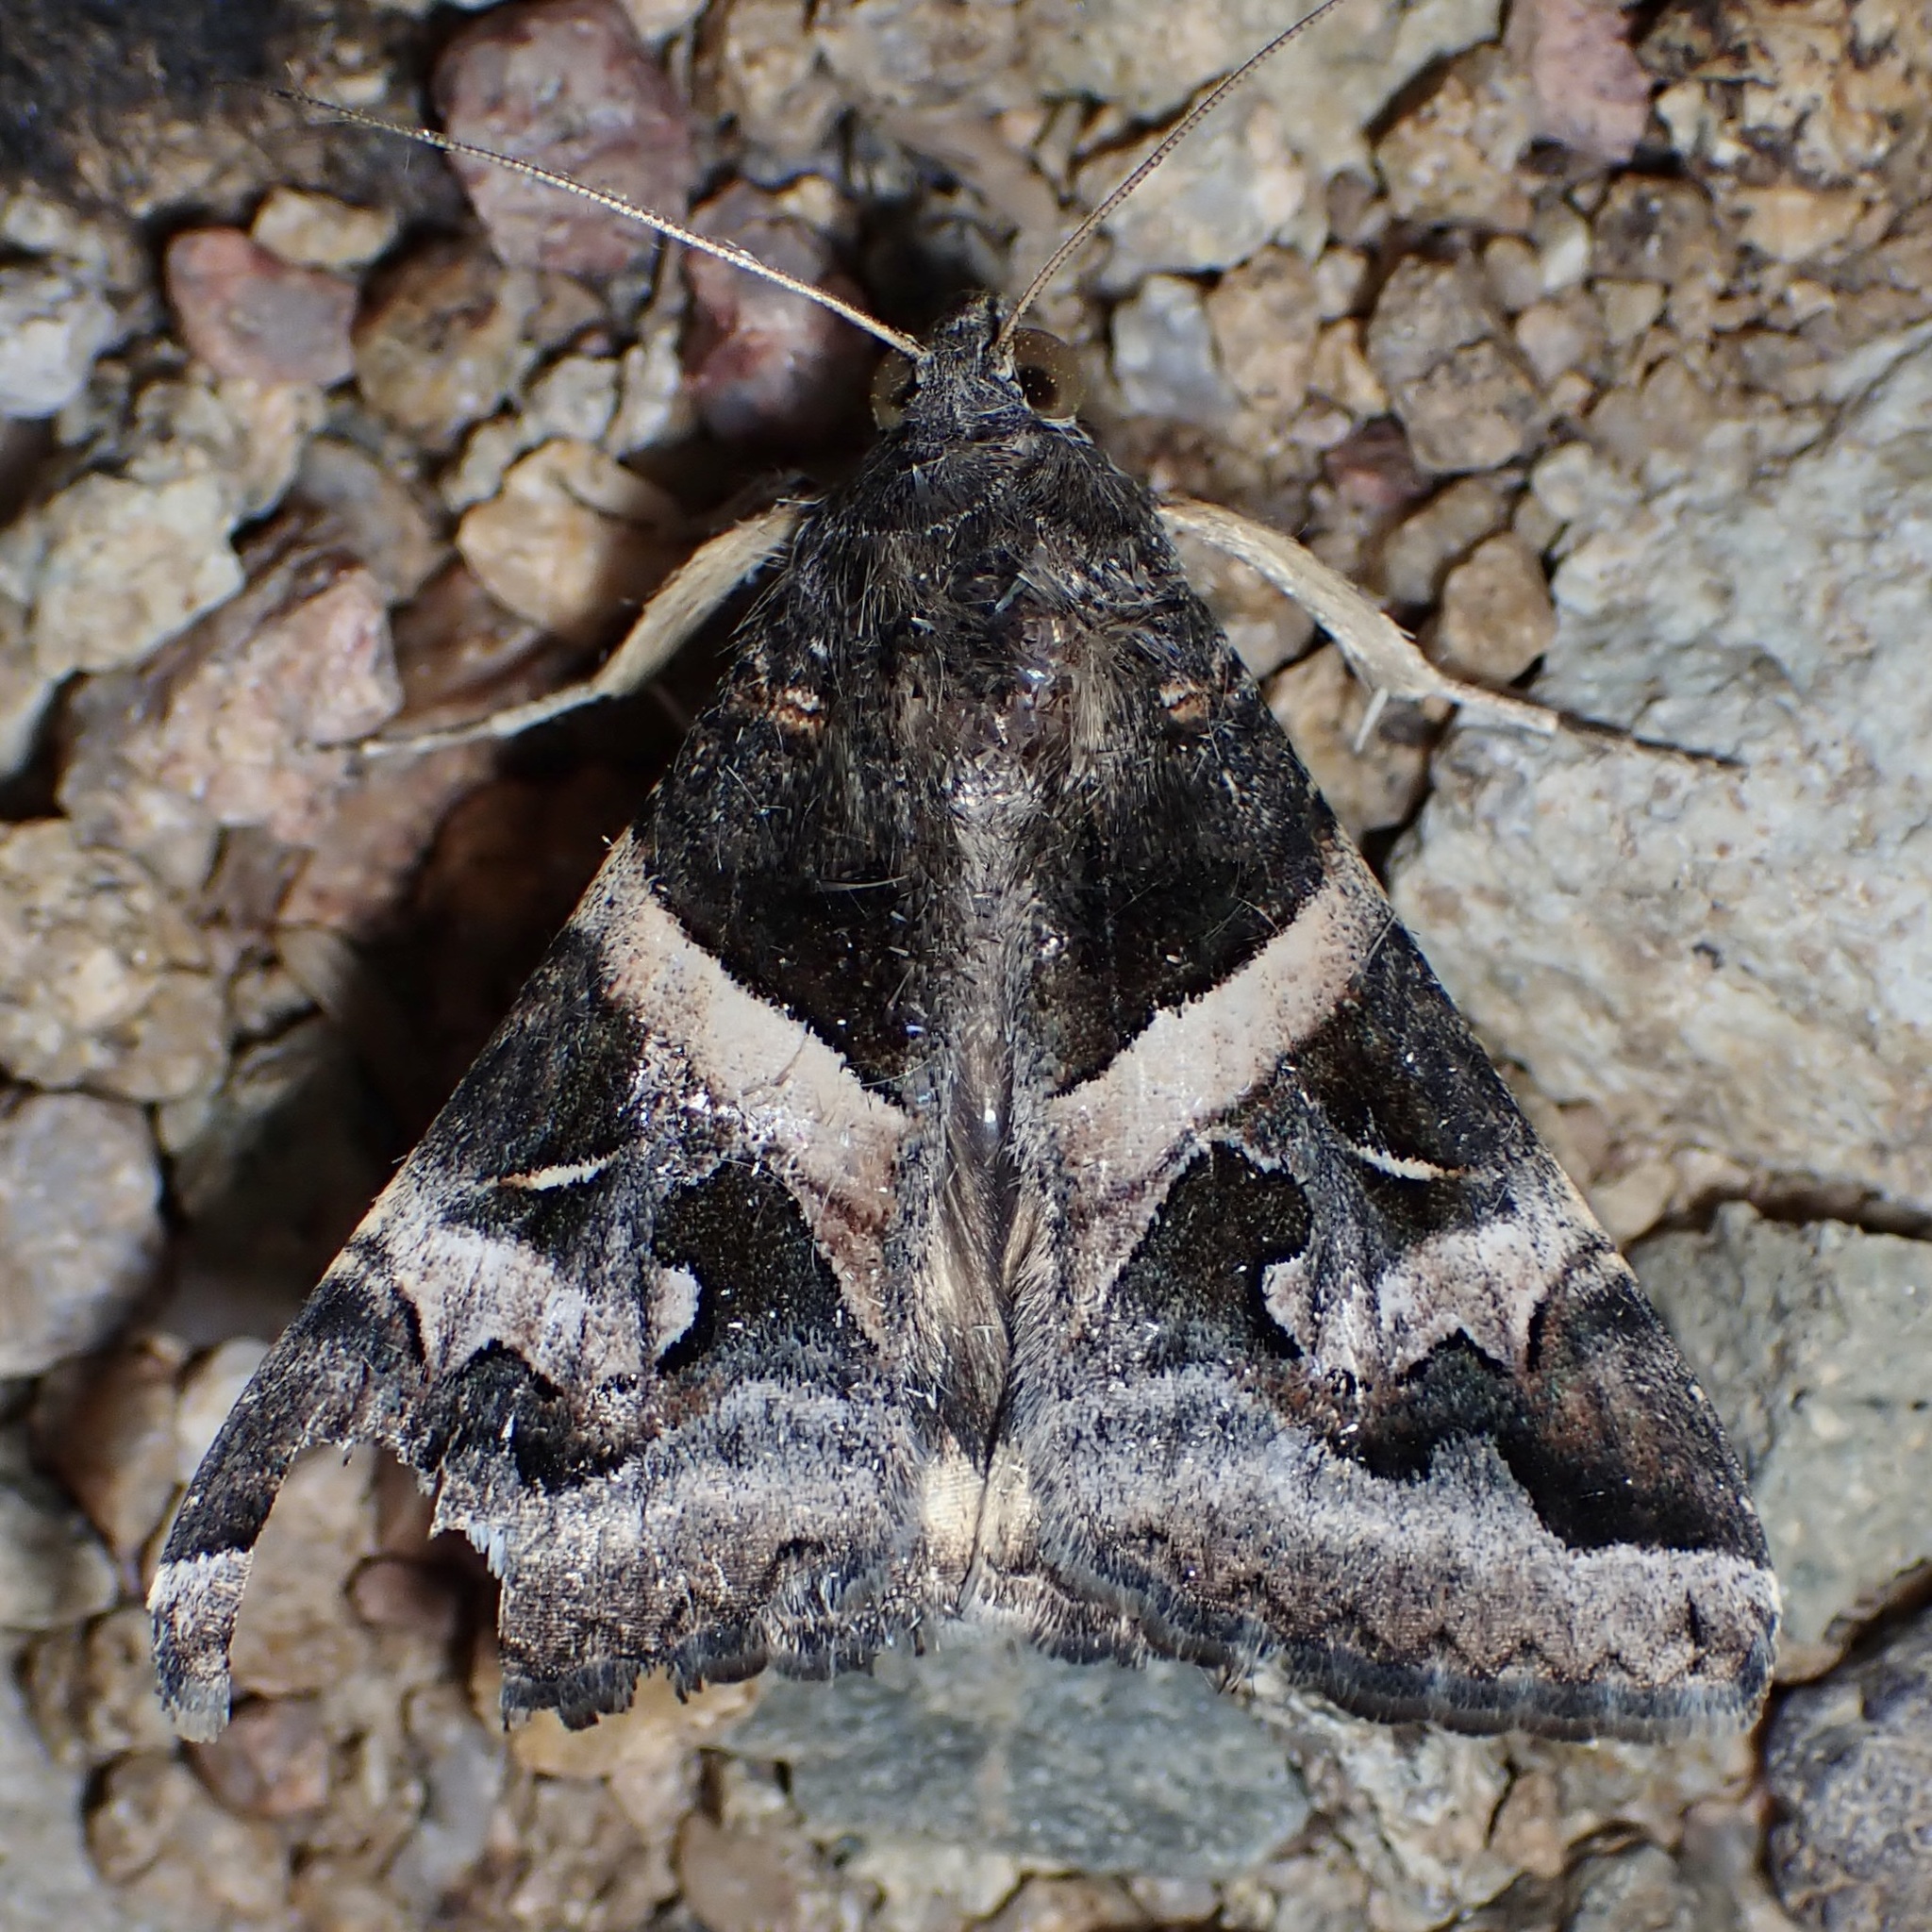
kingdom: Animalia
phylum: Arthropoda
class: Insecta
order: Lepidoptera
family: Erebidae
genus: Melipotis
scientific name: Melipotis indomita
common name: Moth
